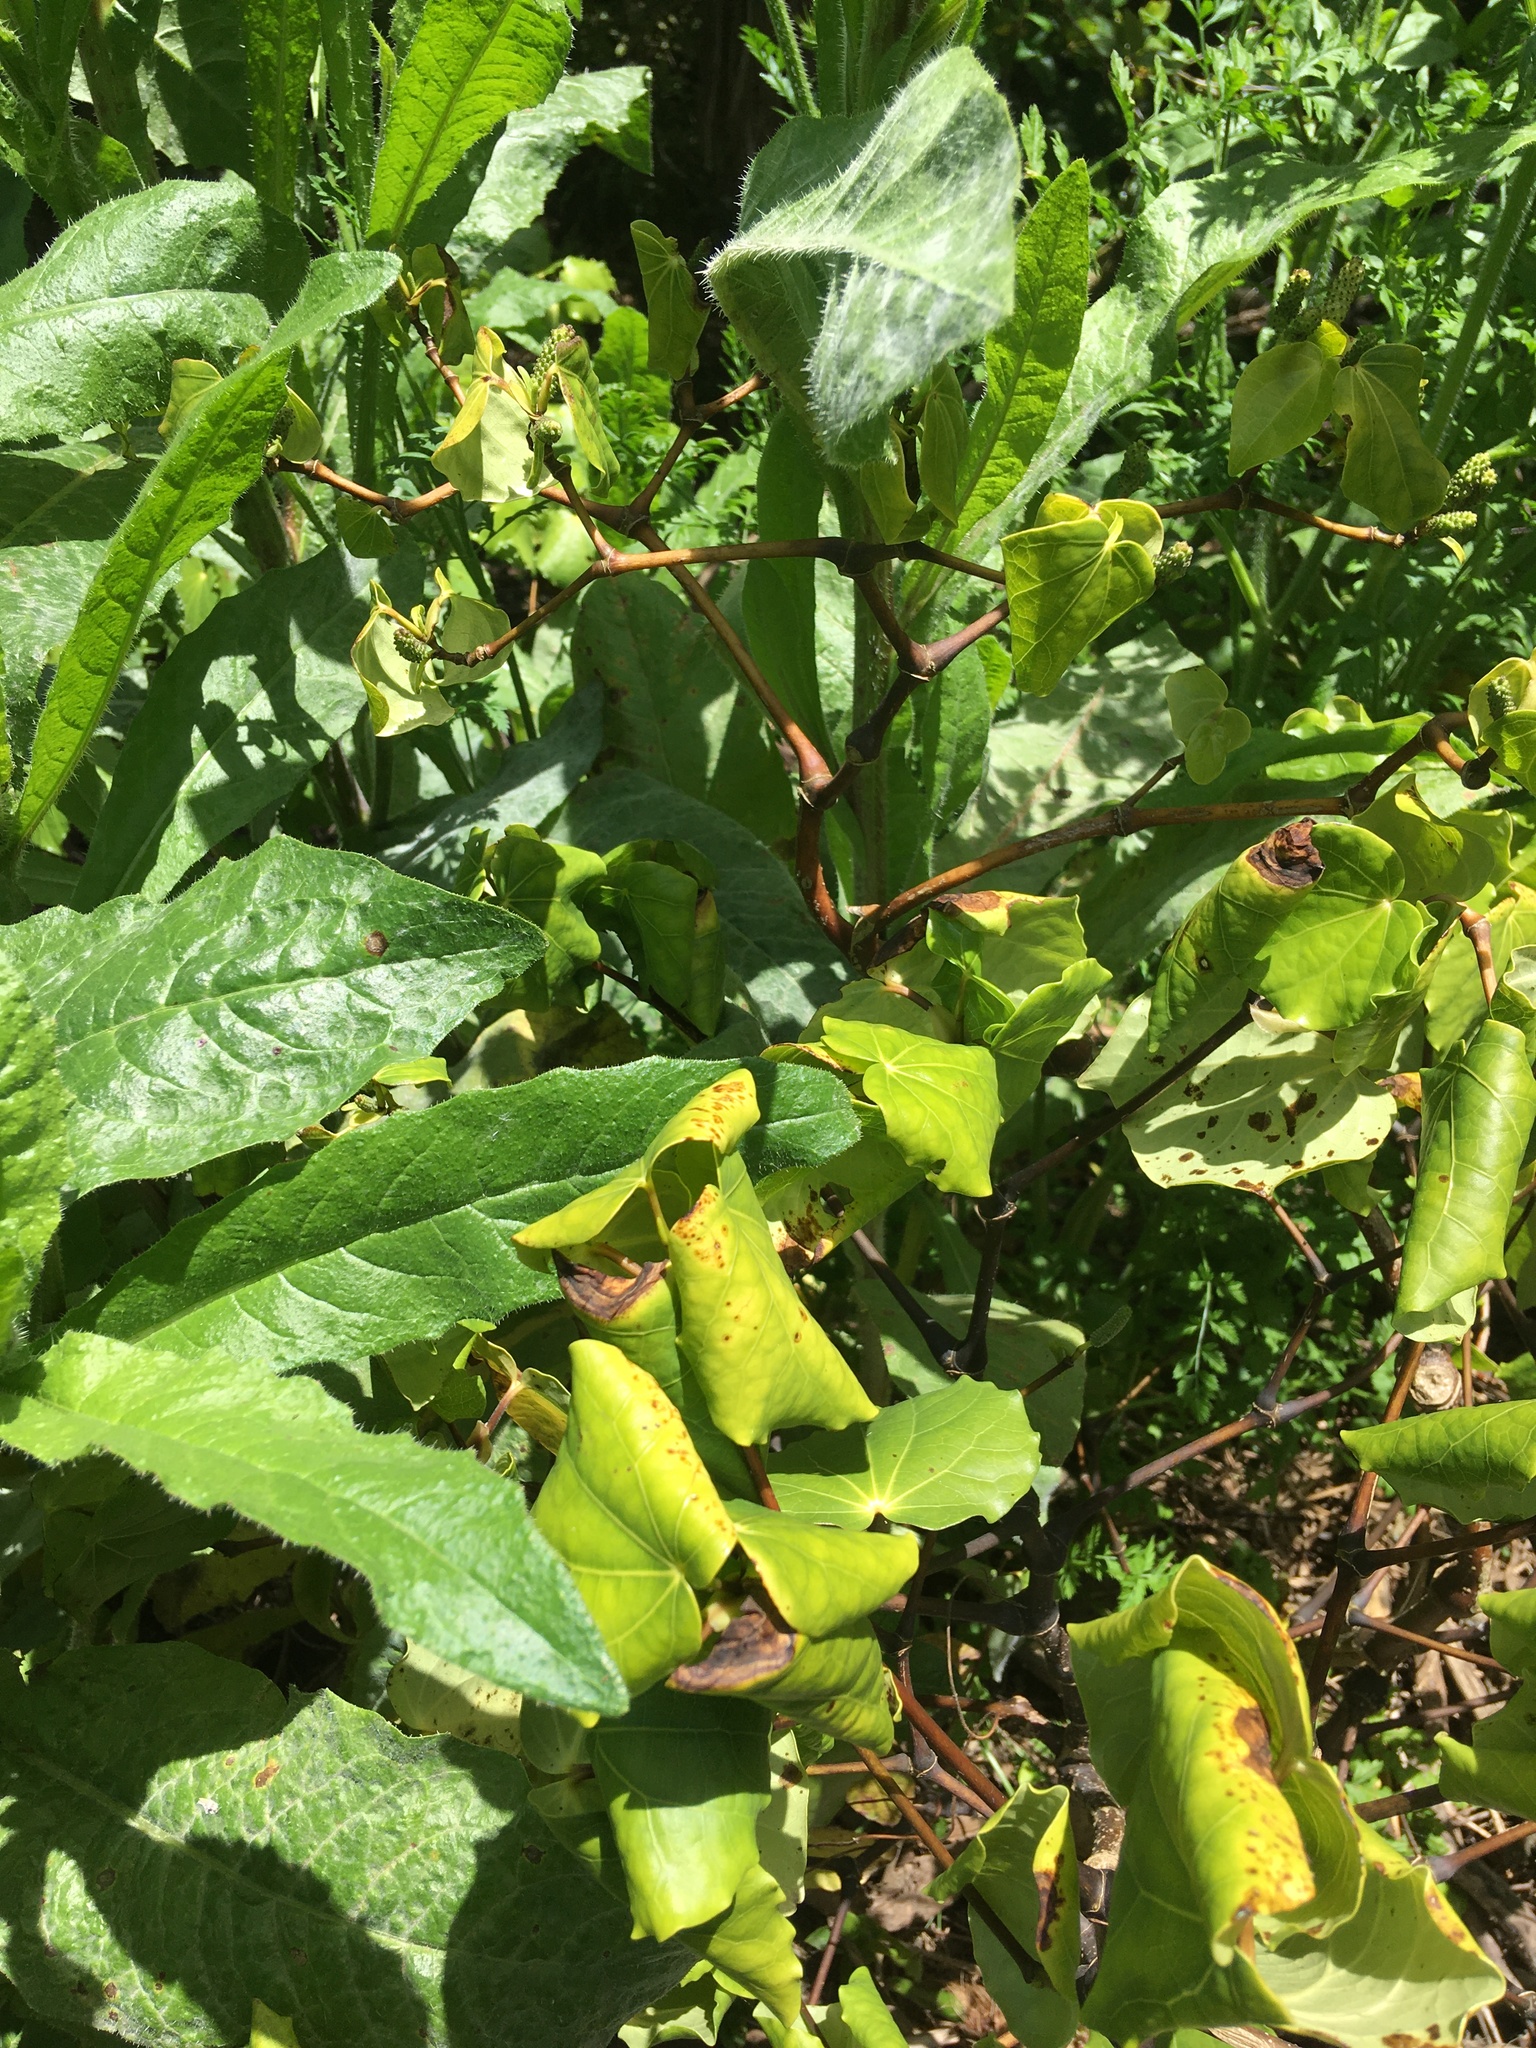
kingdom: Plantae
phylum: Tracheophyta
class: Magnoliopsida
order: Piperales
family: Piperaceae
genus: Macropiper
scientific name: Macropiper excelsum
